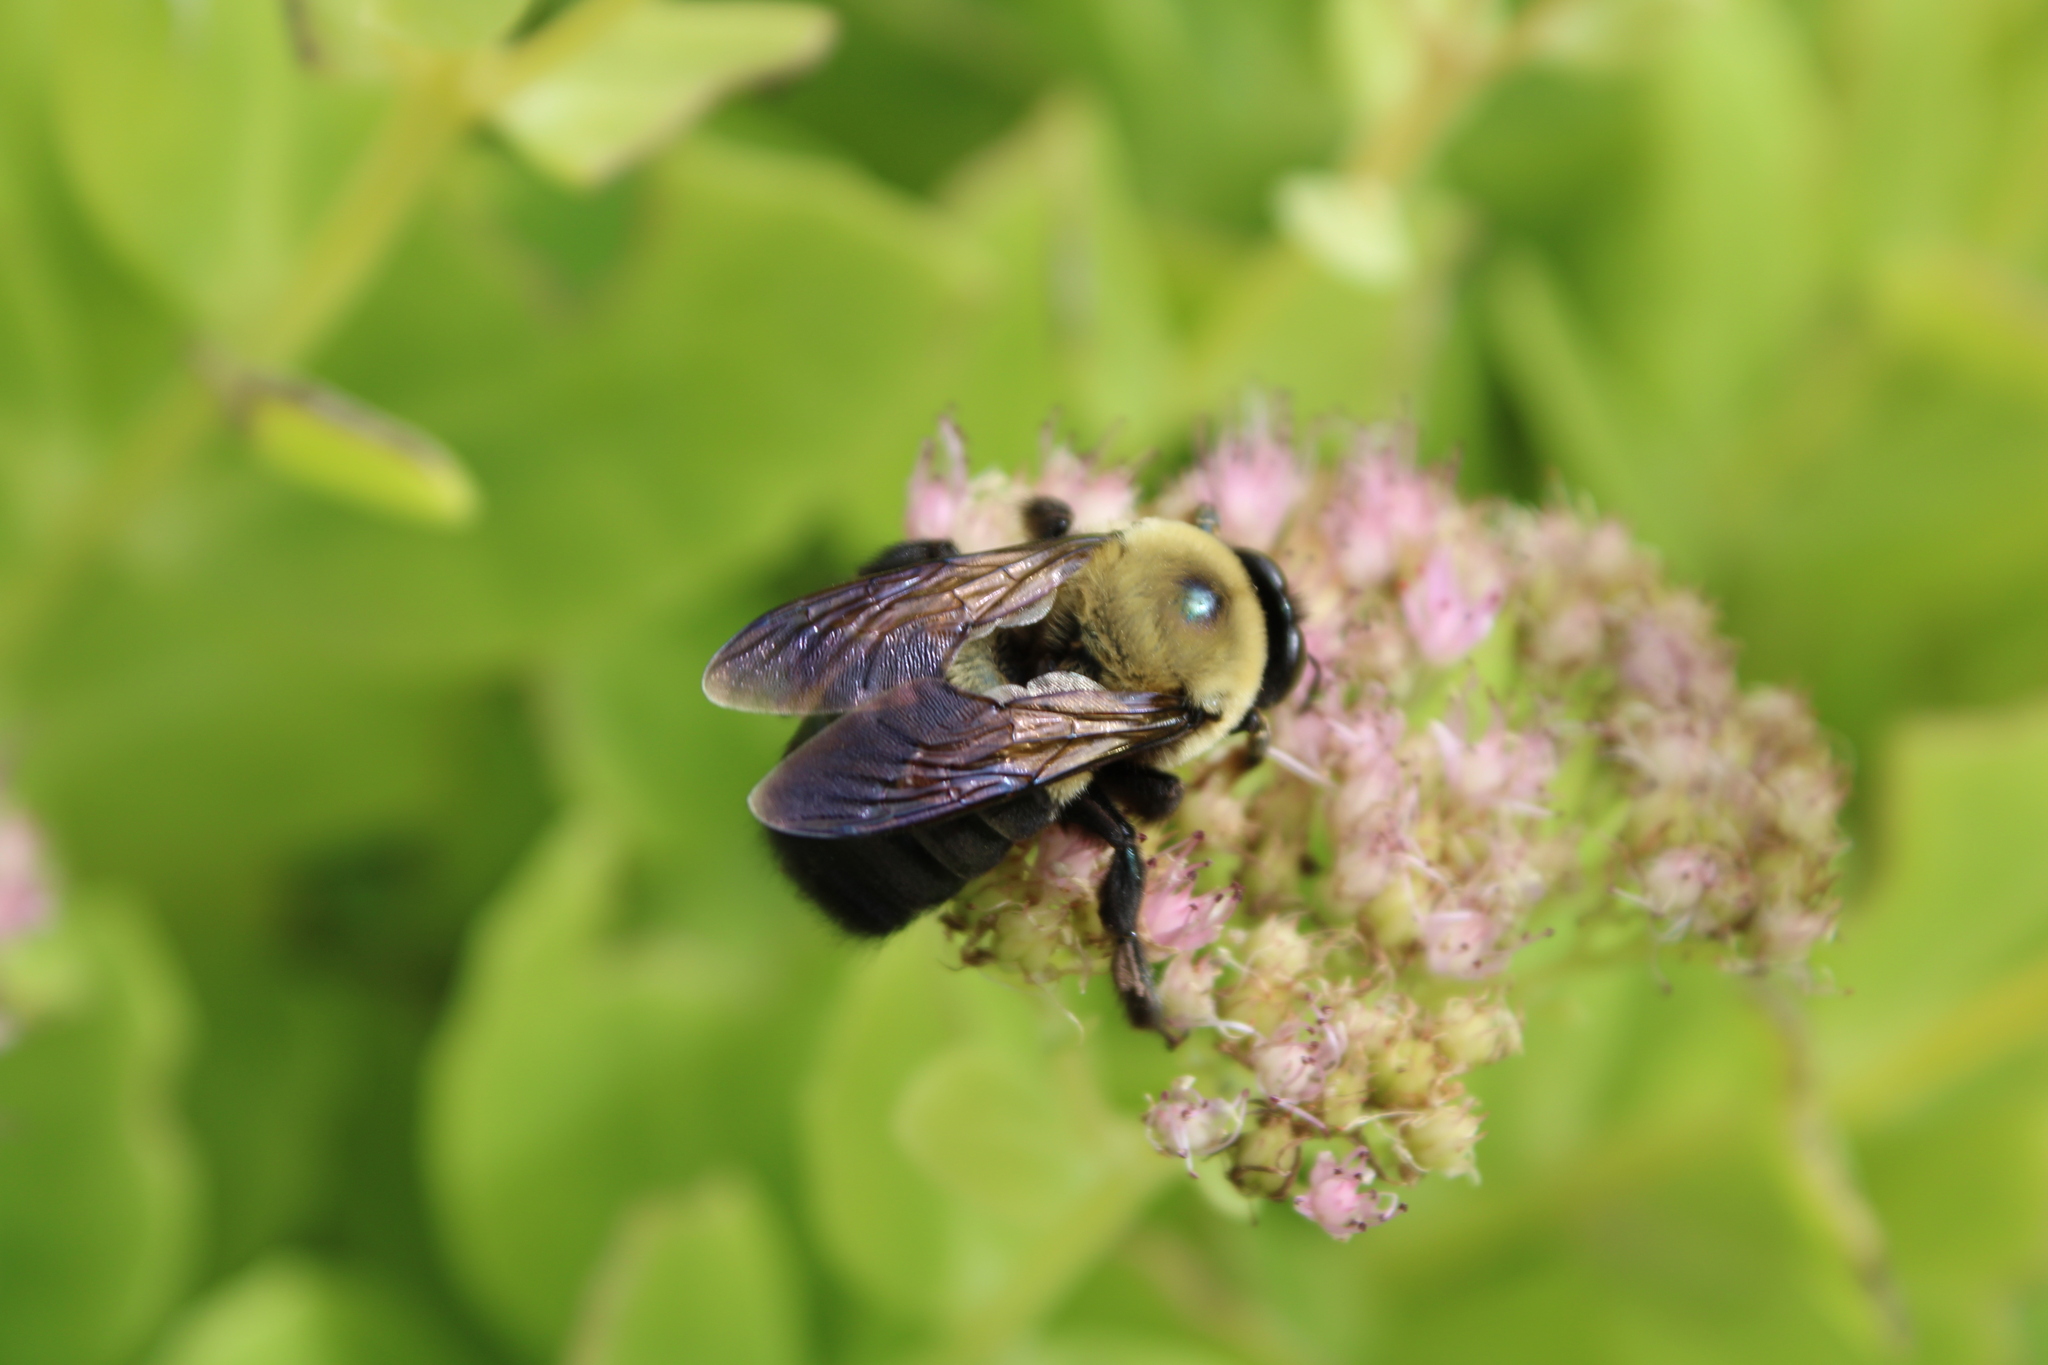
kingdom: Animalia
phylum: Arthropoda
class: Insecta
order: Hymenoptera
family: Apidae
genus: Xylocopa
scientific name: Xylocopa virginica
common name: Carpenter bee
